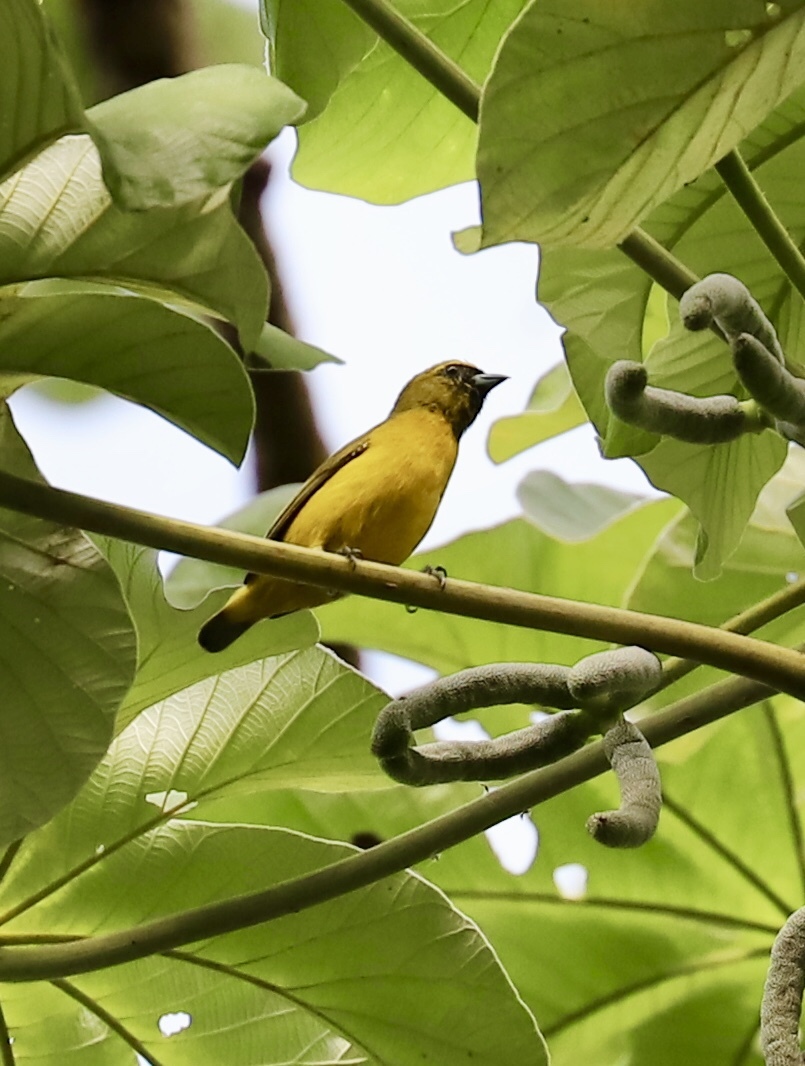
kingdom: Animalia
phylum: Chordata
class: Aves
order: Passeriformes
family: Fringillidae
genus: Euphonia
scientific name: Euphonia luteicapilla
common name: Yellow-crowned euphonia
